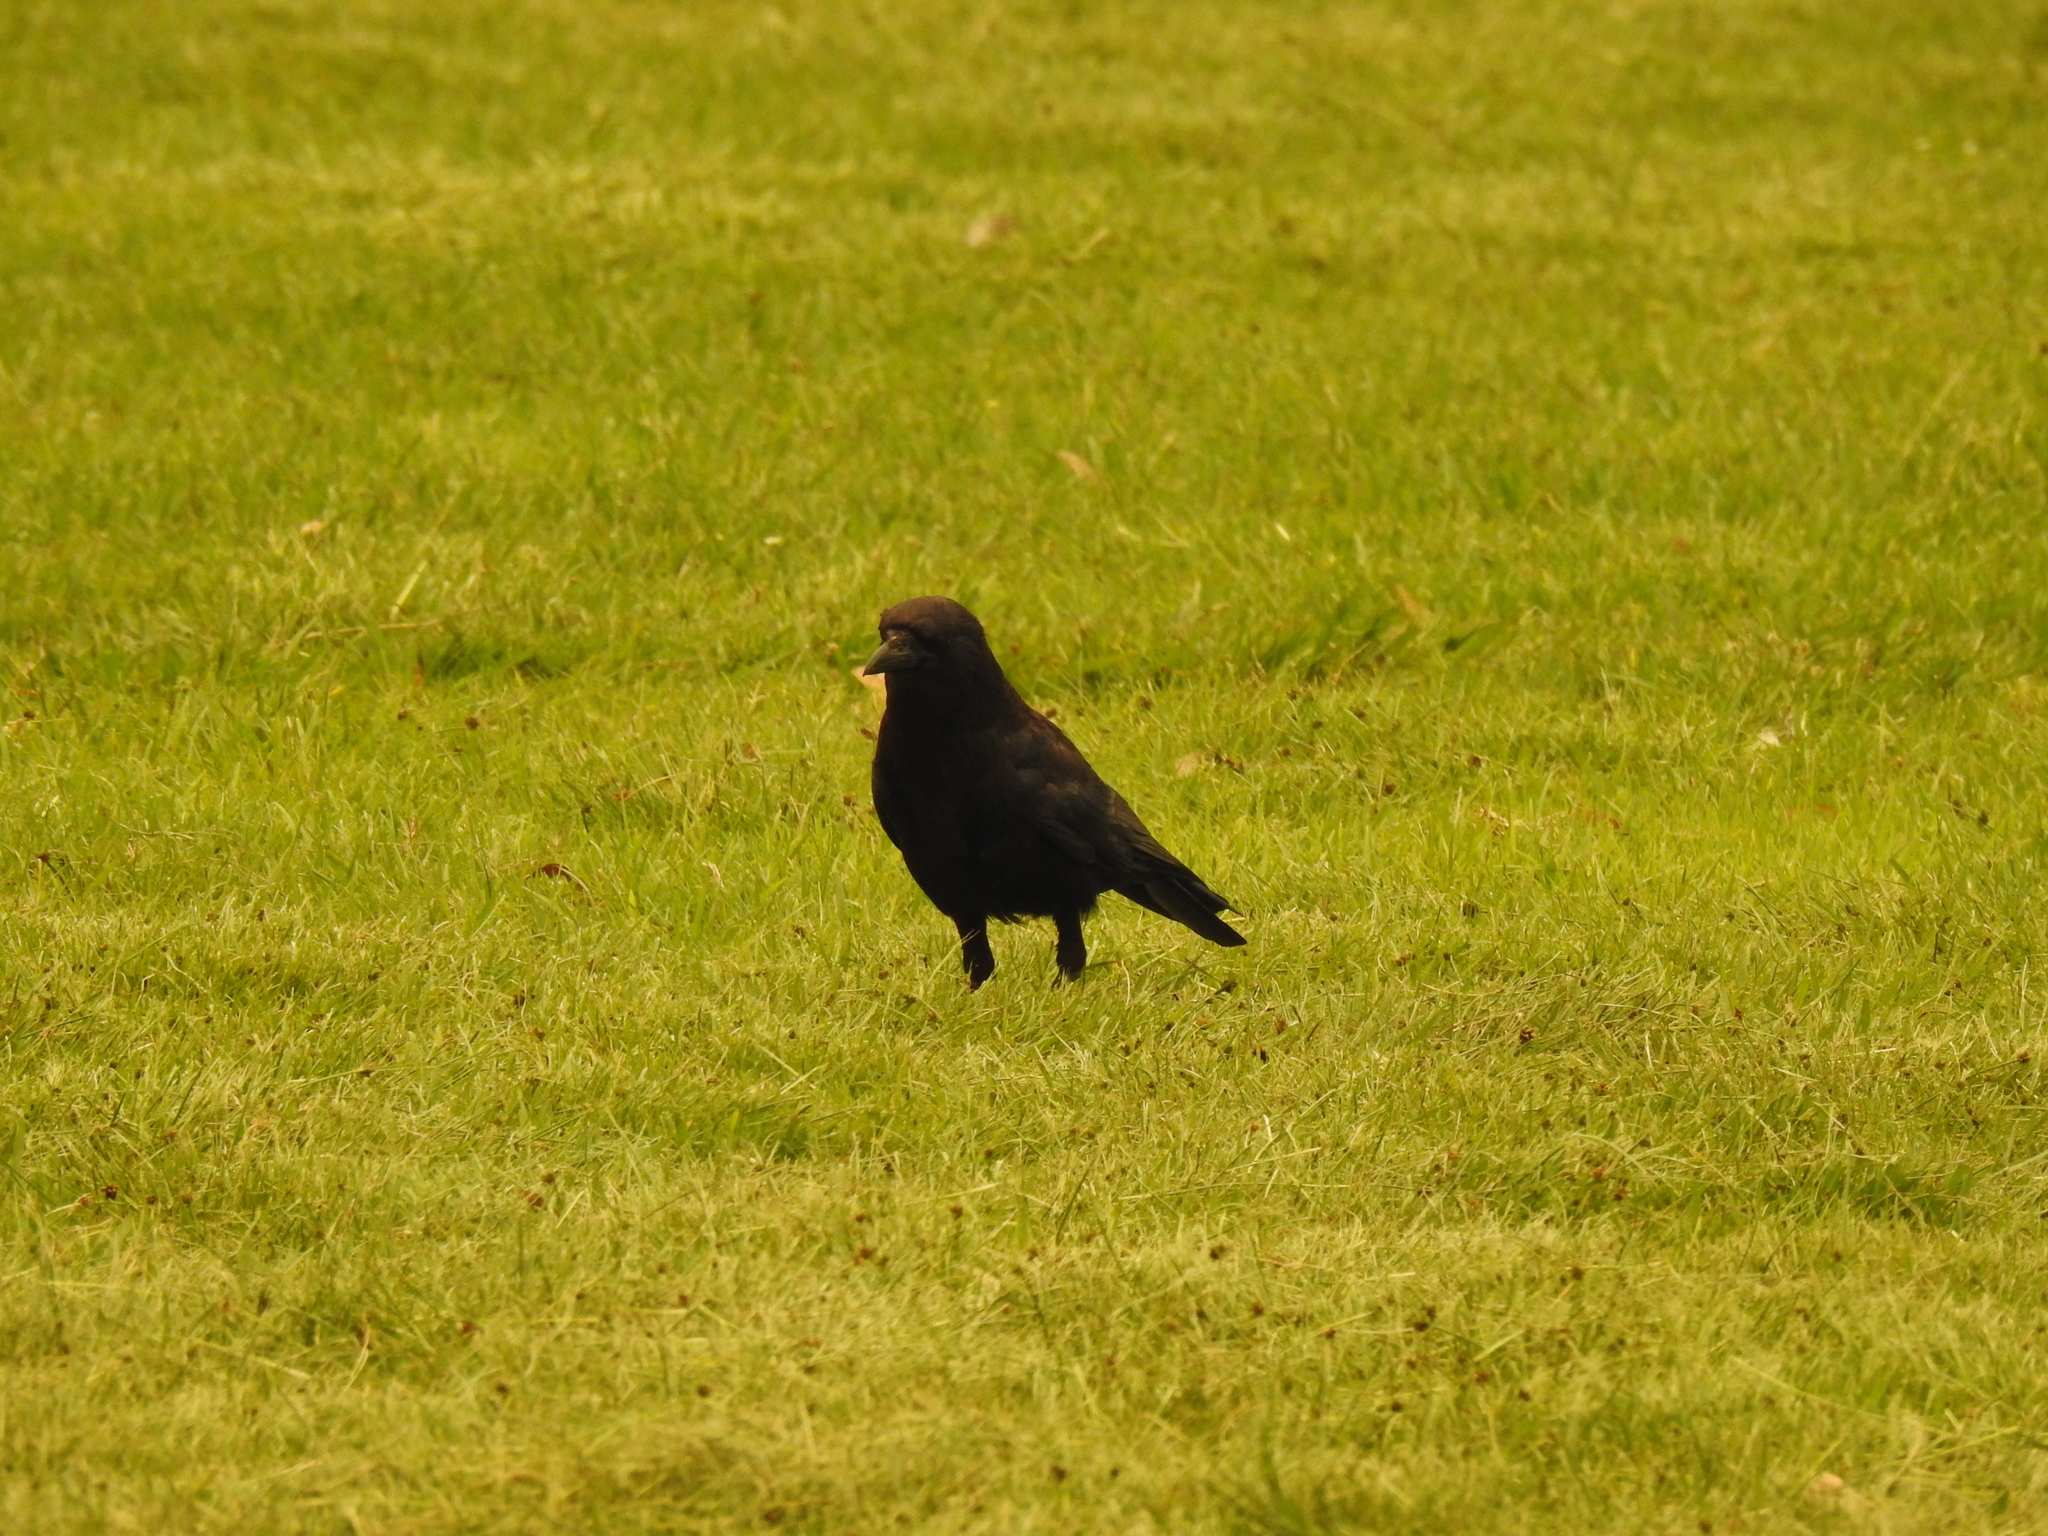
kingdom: Animalia
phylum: Chordata
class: Aves
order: Passeriformes
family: Corvidae
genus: Corvus
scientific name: Corvus brachyrhynchos
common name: American crow
